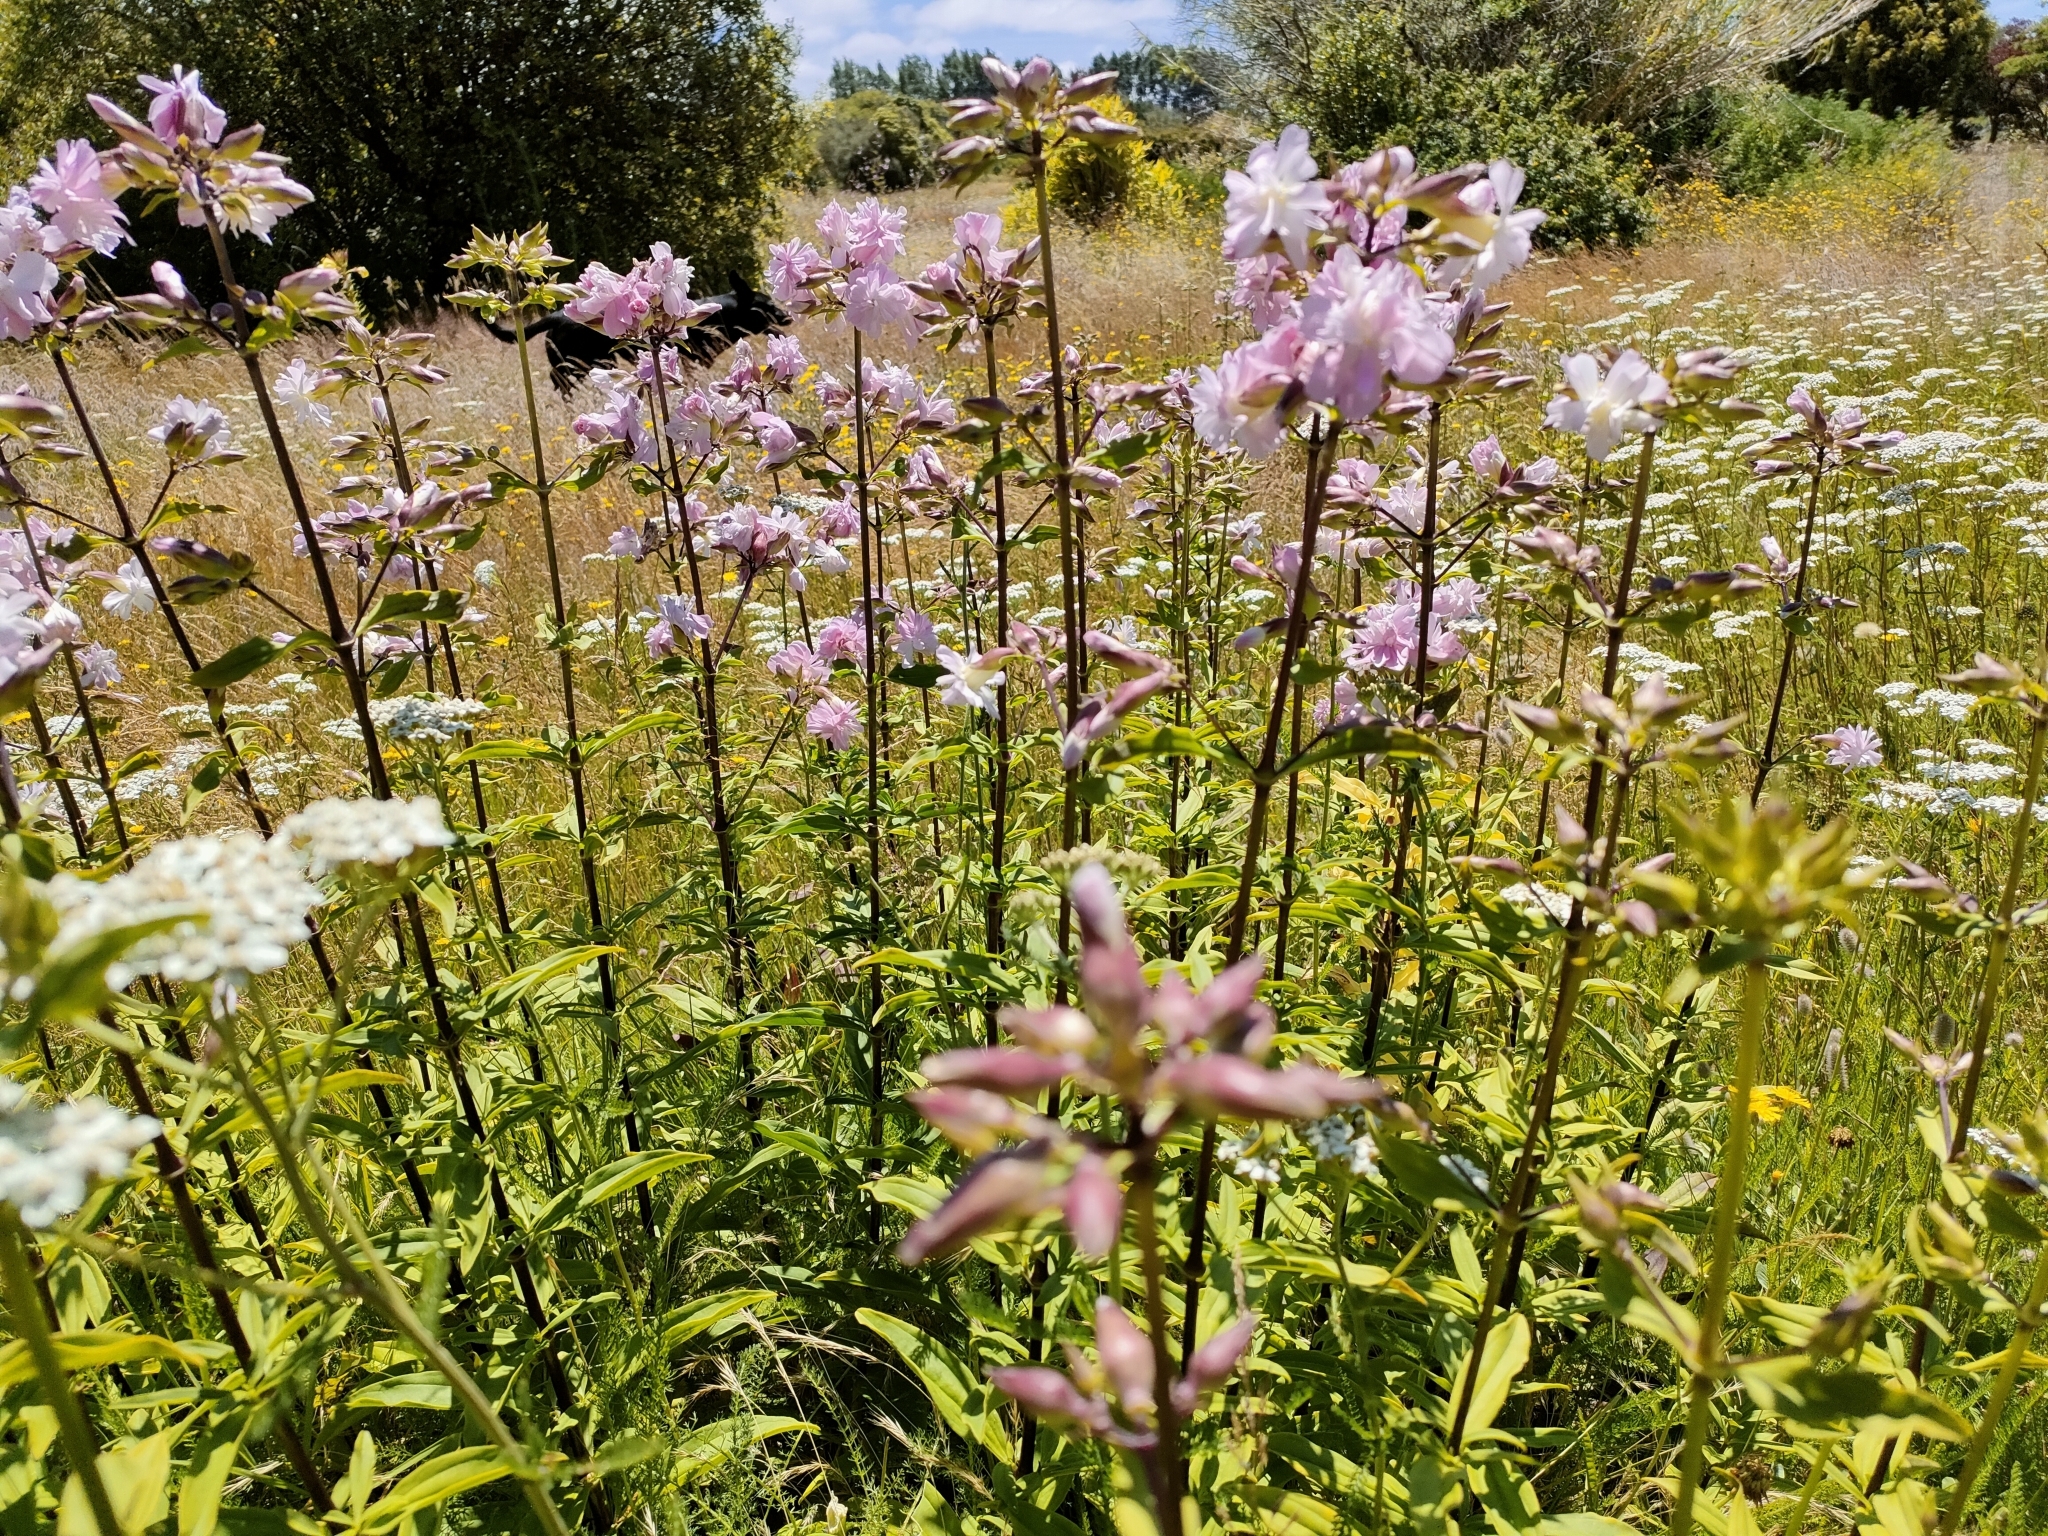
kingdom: Plantae
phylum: Tracheophyta
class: Magnoliopsida
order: Caryophyllales
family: Caryophyllaceae
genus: Saponaria
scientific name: Saponaria officinalis
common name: Soapwort
